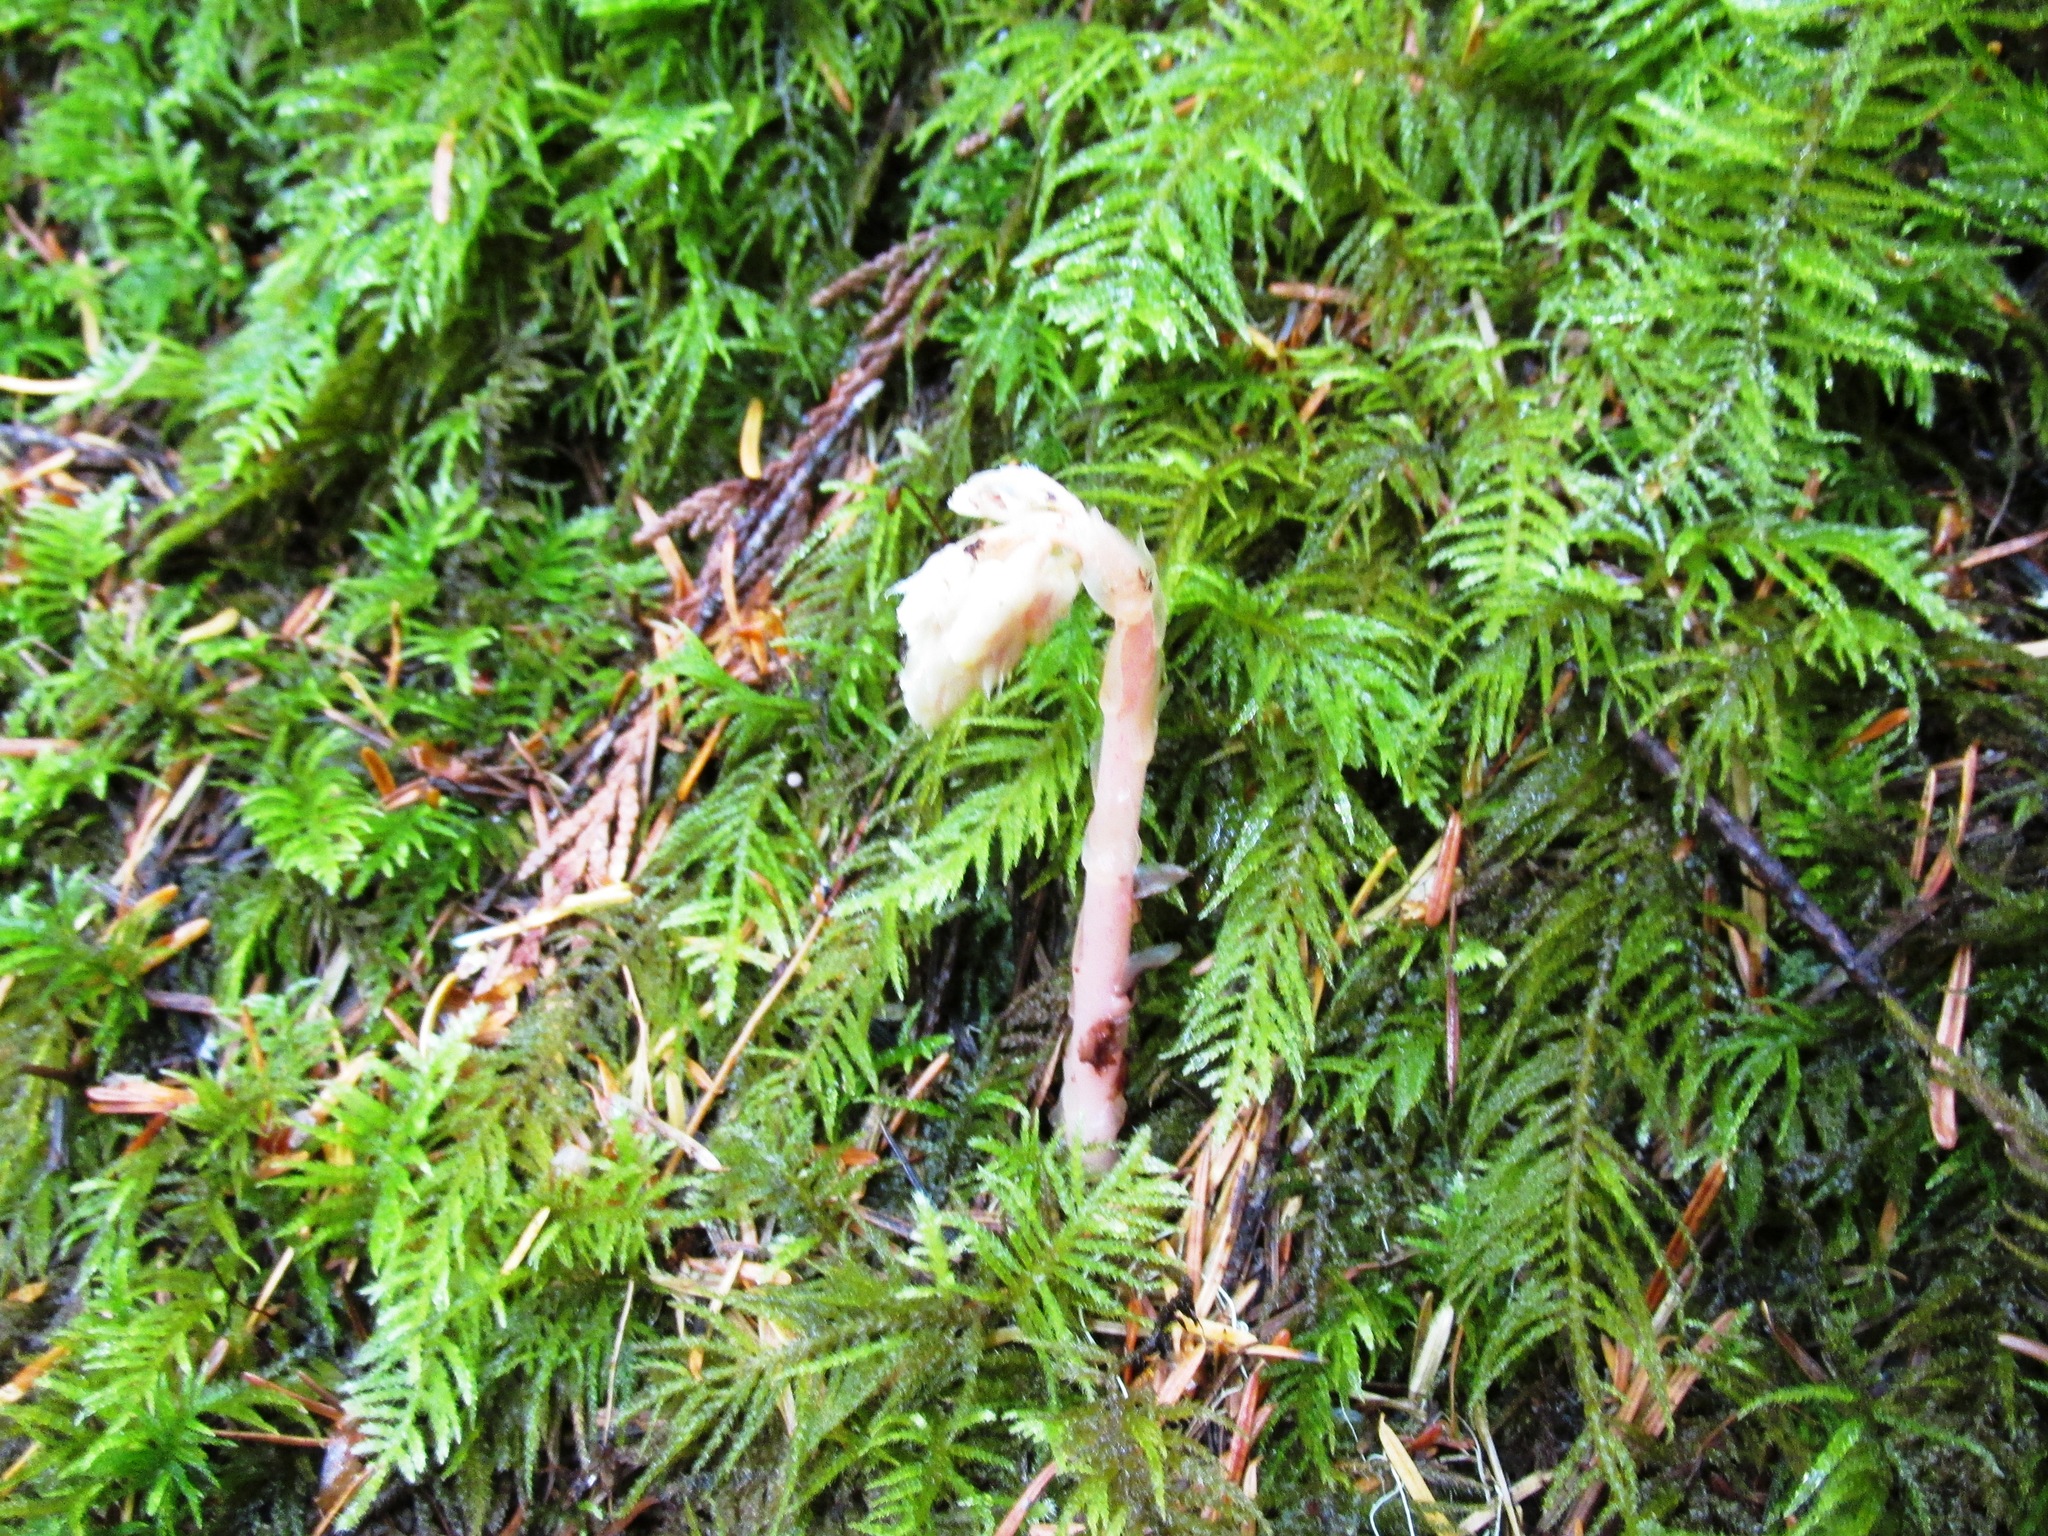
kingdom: Plantae
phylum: Tracheophyta
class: Magnoliopsida
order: Ericales
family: Ericaceae
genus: Hypopitys
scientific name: Hypopitys monotropa
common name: Yellow bird's-nest
